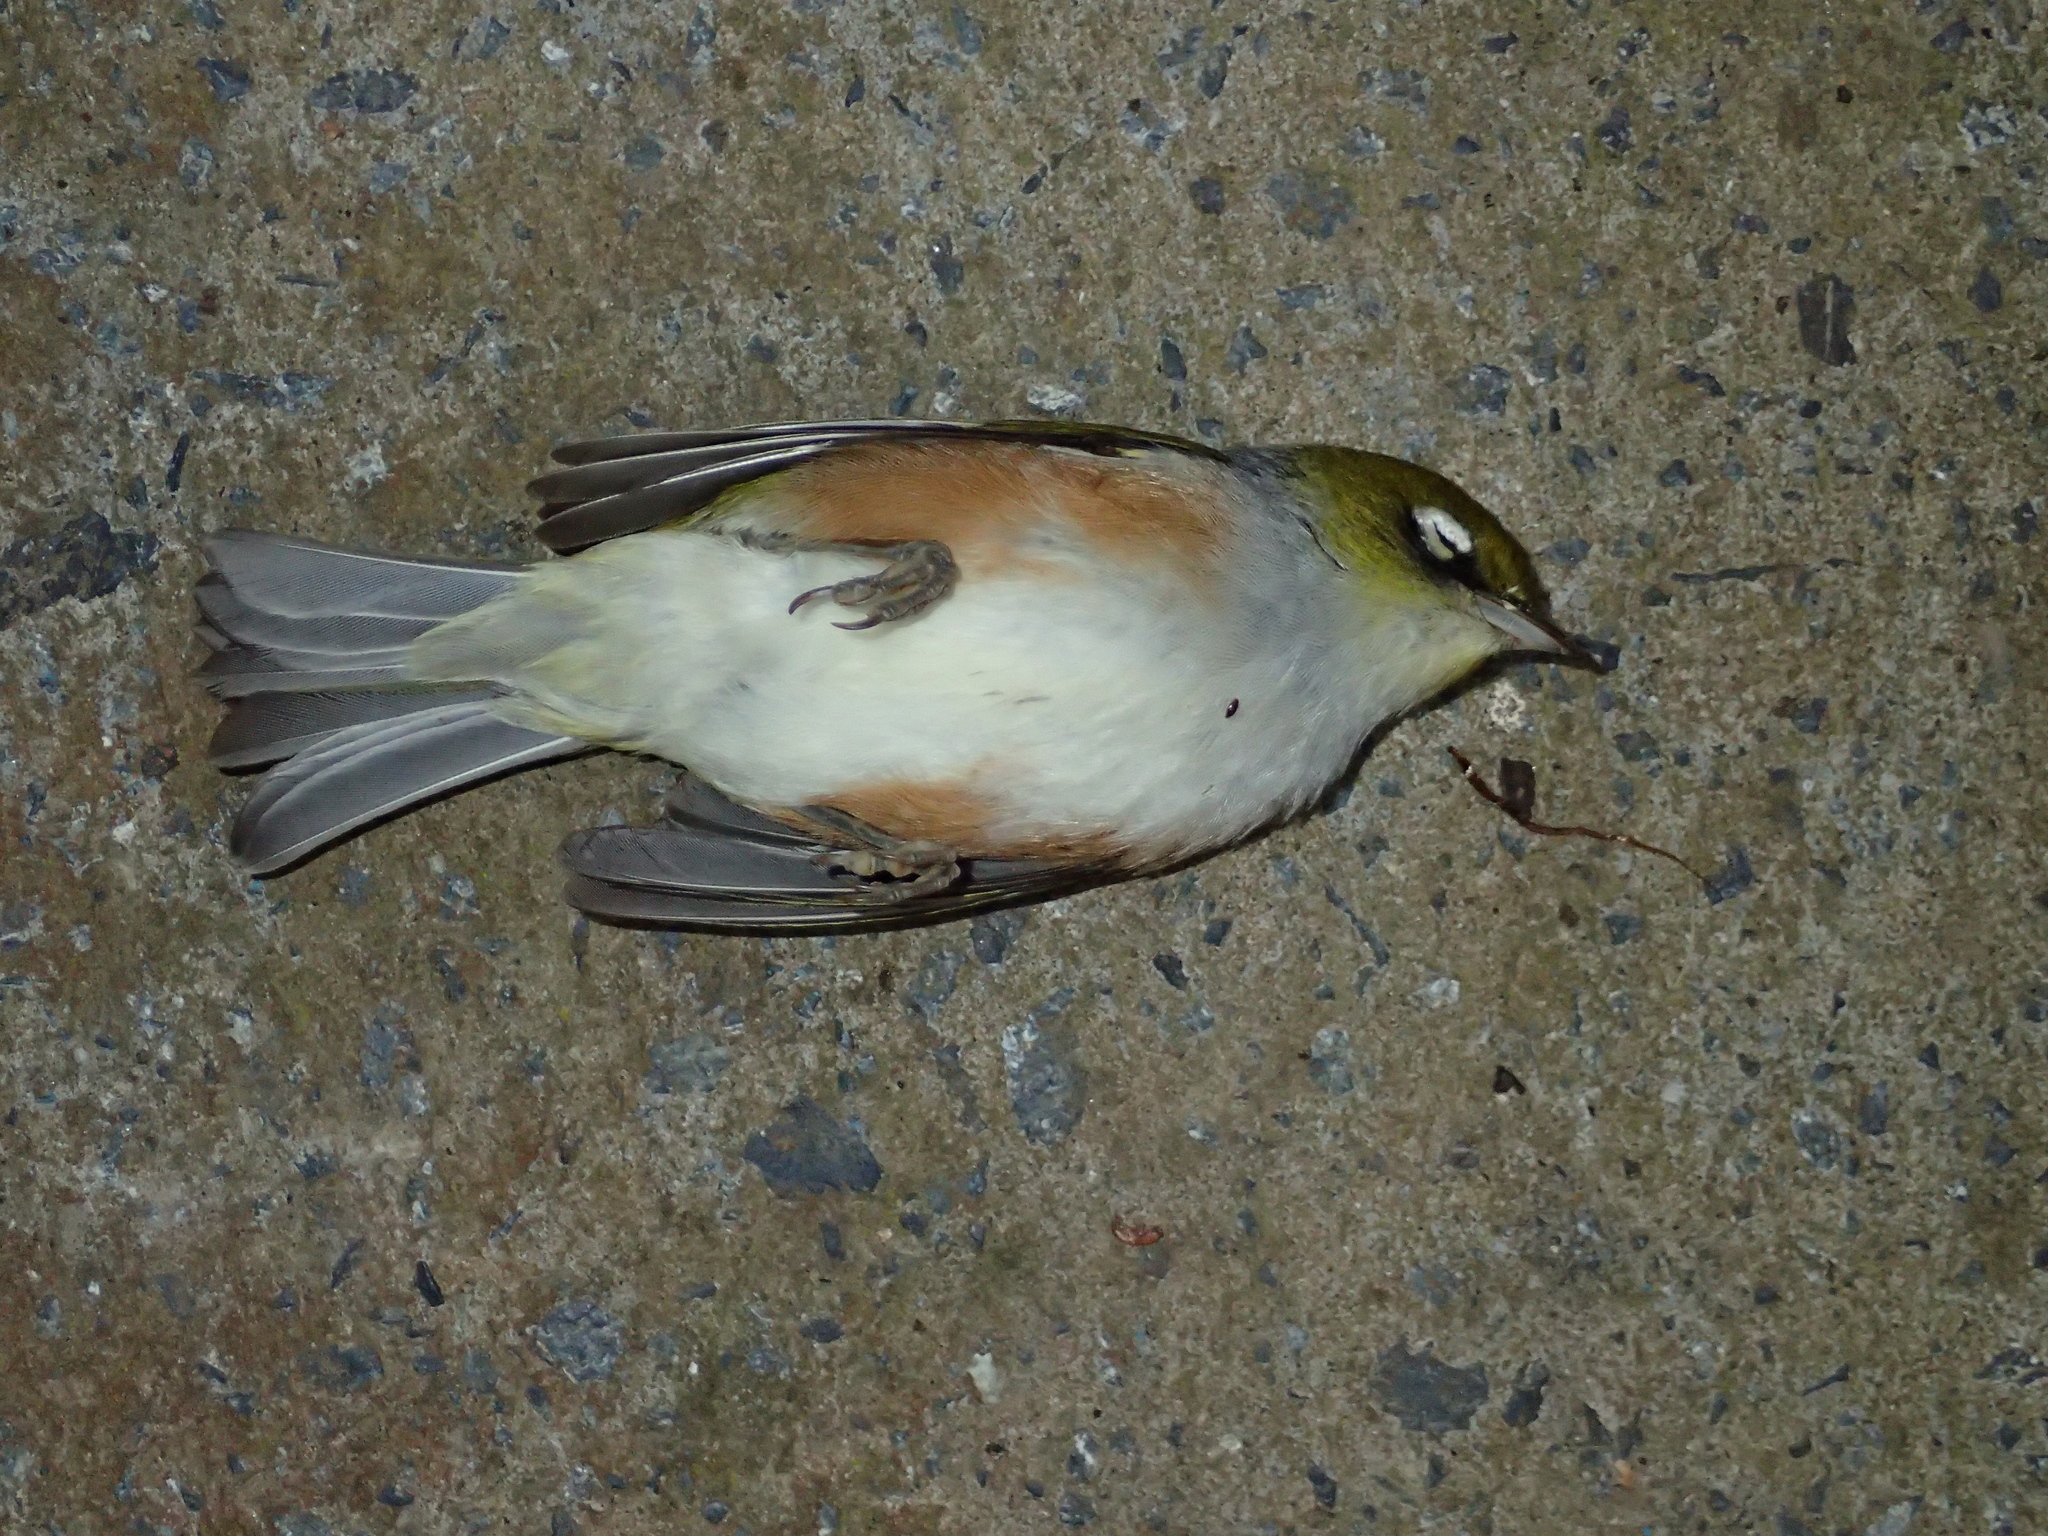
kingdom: Animalia
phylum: Chordata
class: Aves
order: Passeriformes
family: Zosteropidae
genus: Zosterops
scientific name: Zosterops lateralis
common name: Silvereye
